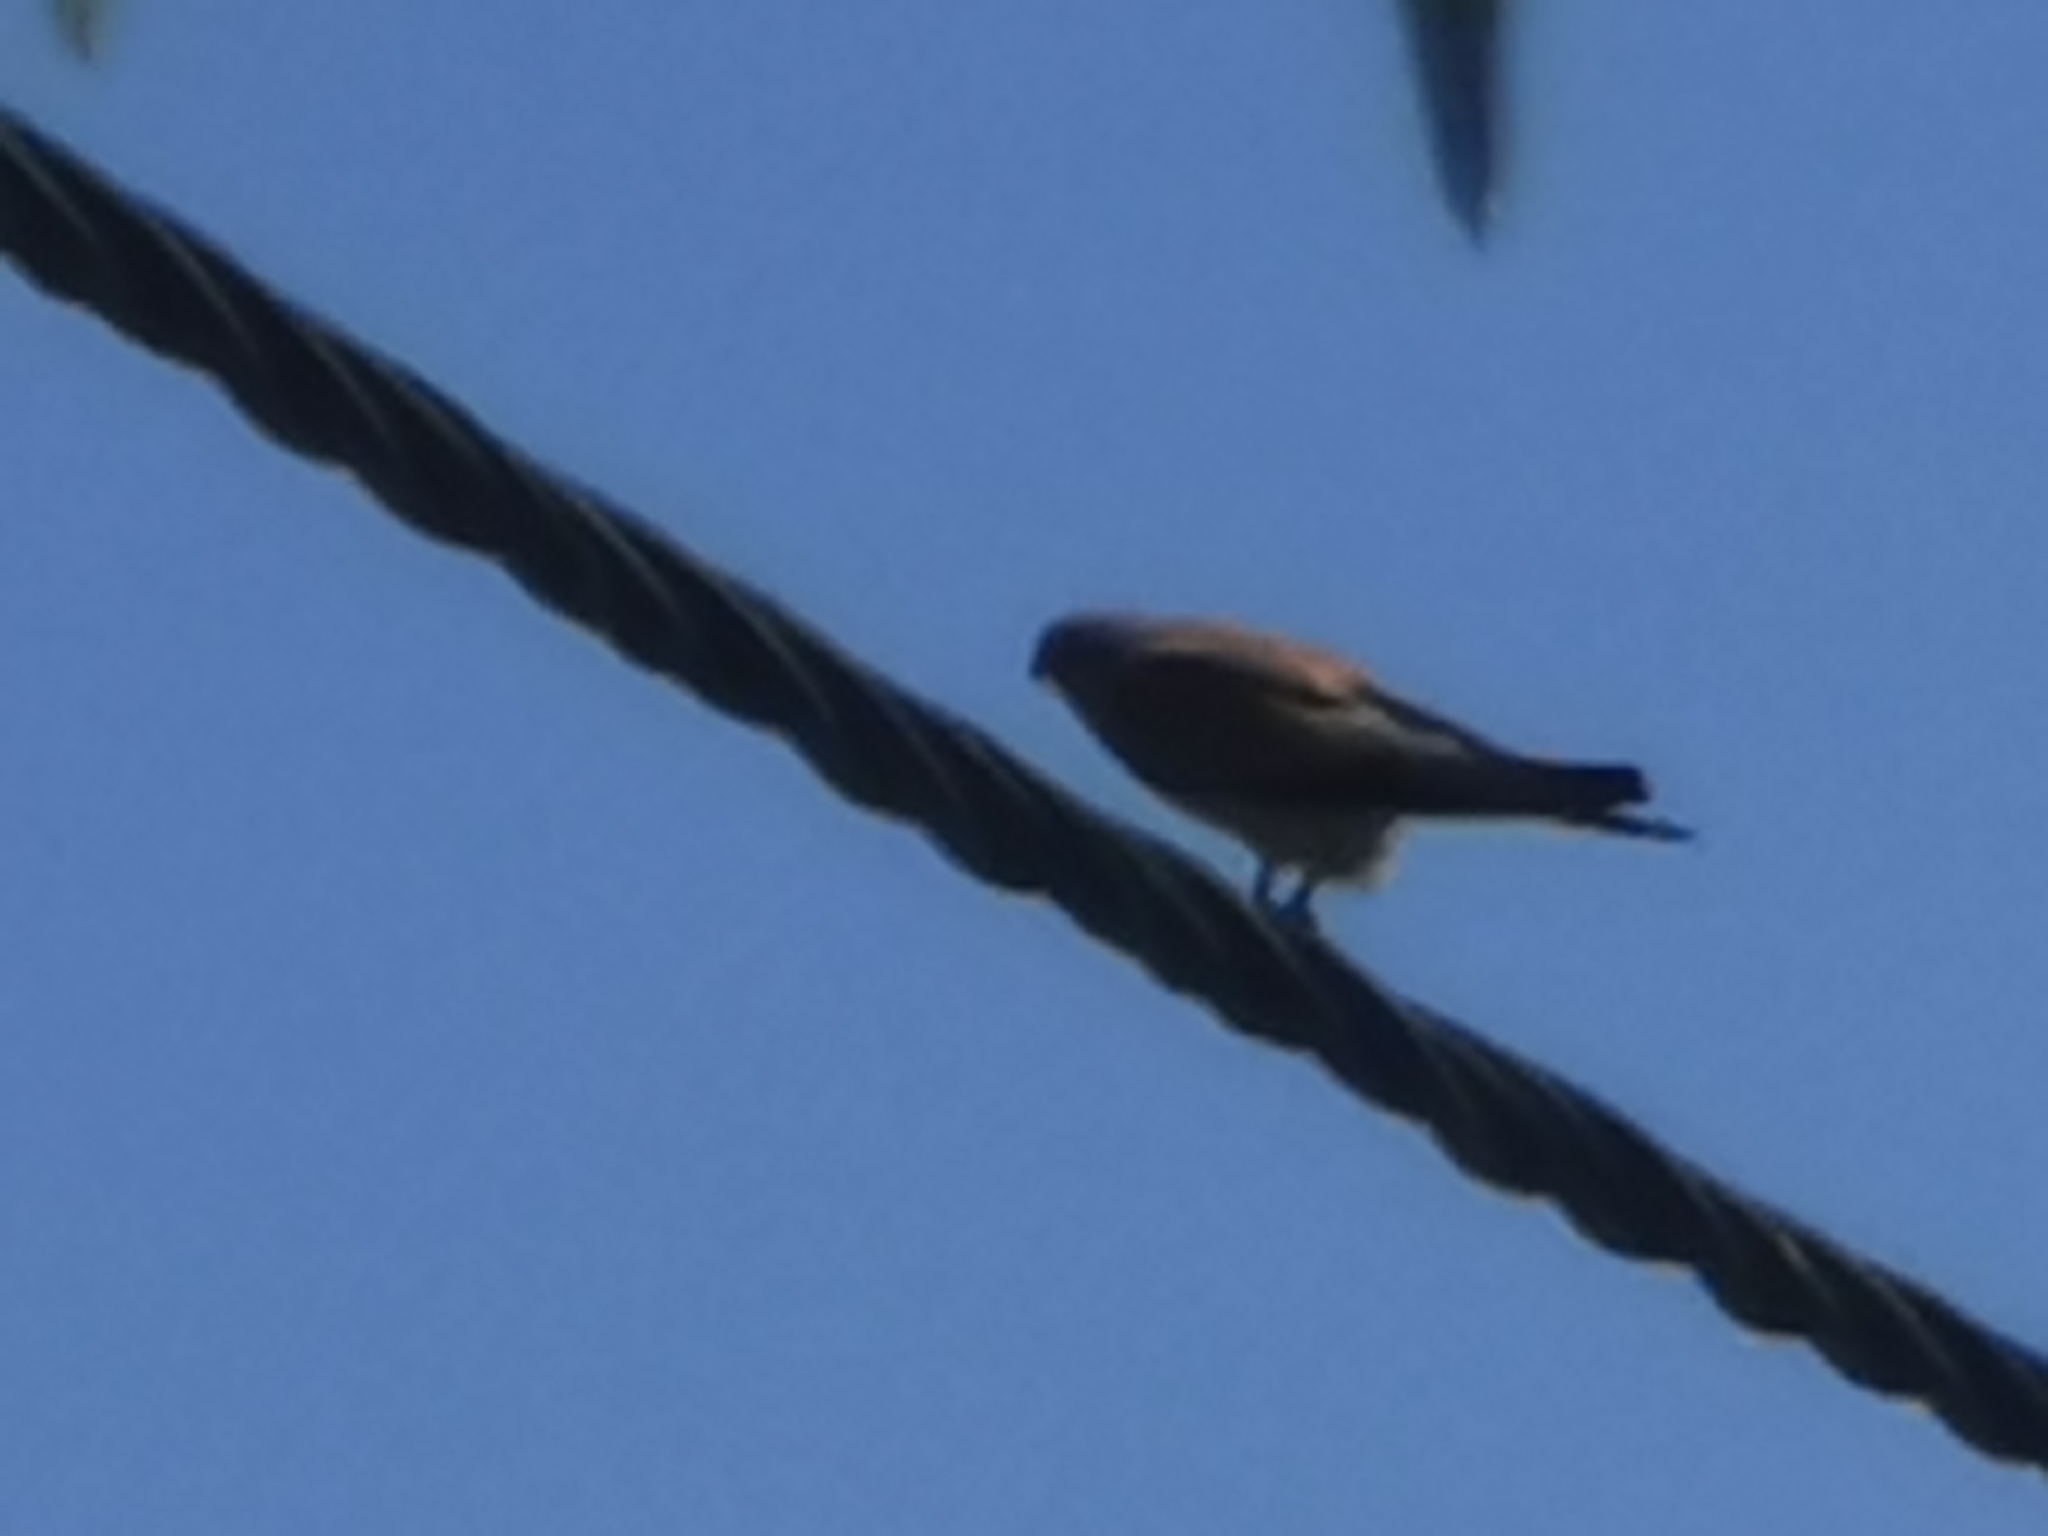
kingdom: Animalia
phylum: Chordata
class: Aves
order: Falconiformes
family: Falconidae
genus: Falco
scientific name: Falco tinnunculus
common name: Common kestrel
